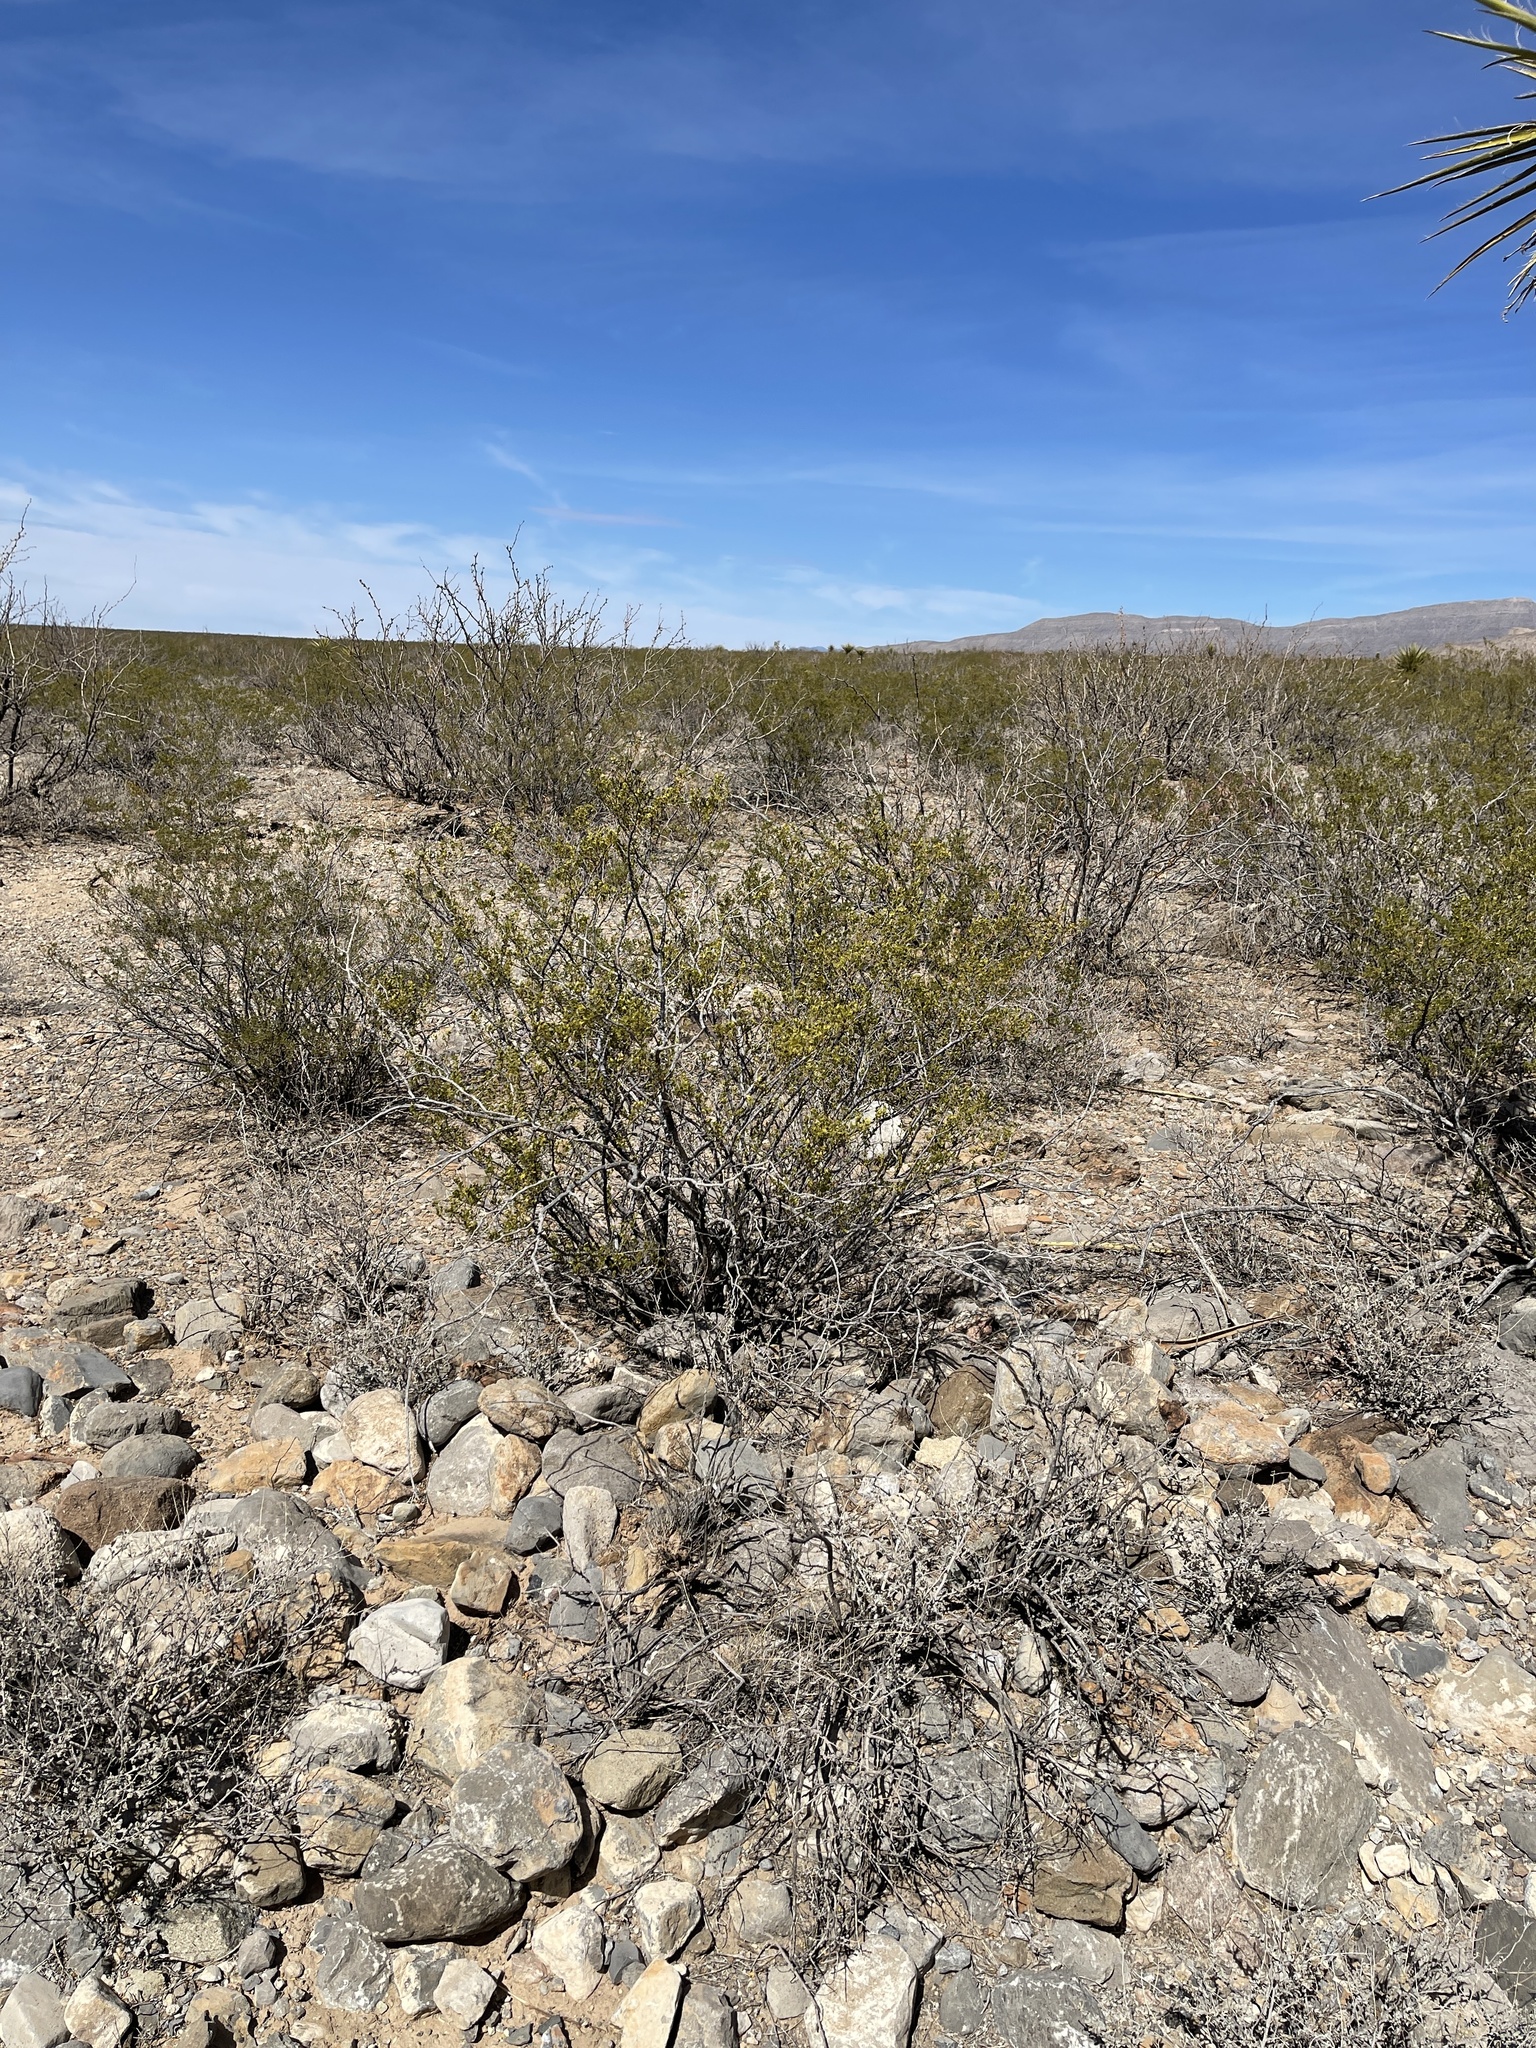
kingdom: Plantae
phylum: Tracheophyta
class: Magnoliopsida
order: Zygophyllales
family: Zygophyllaceae
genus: Larrea
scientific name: Larrea tridentata
